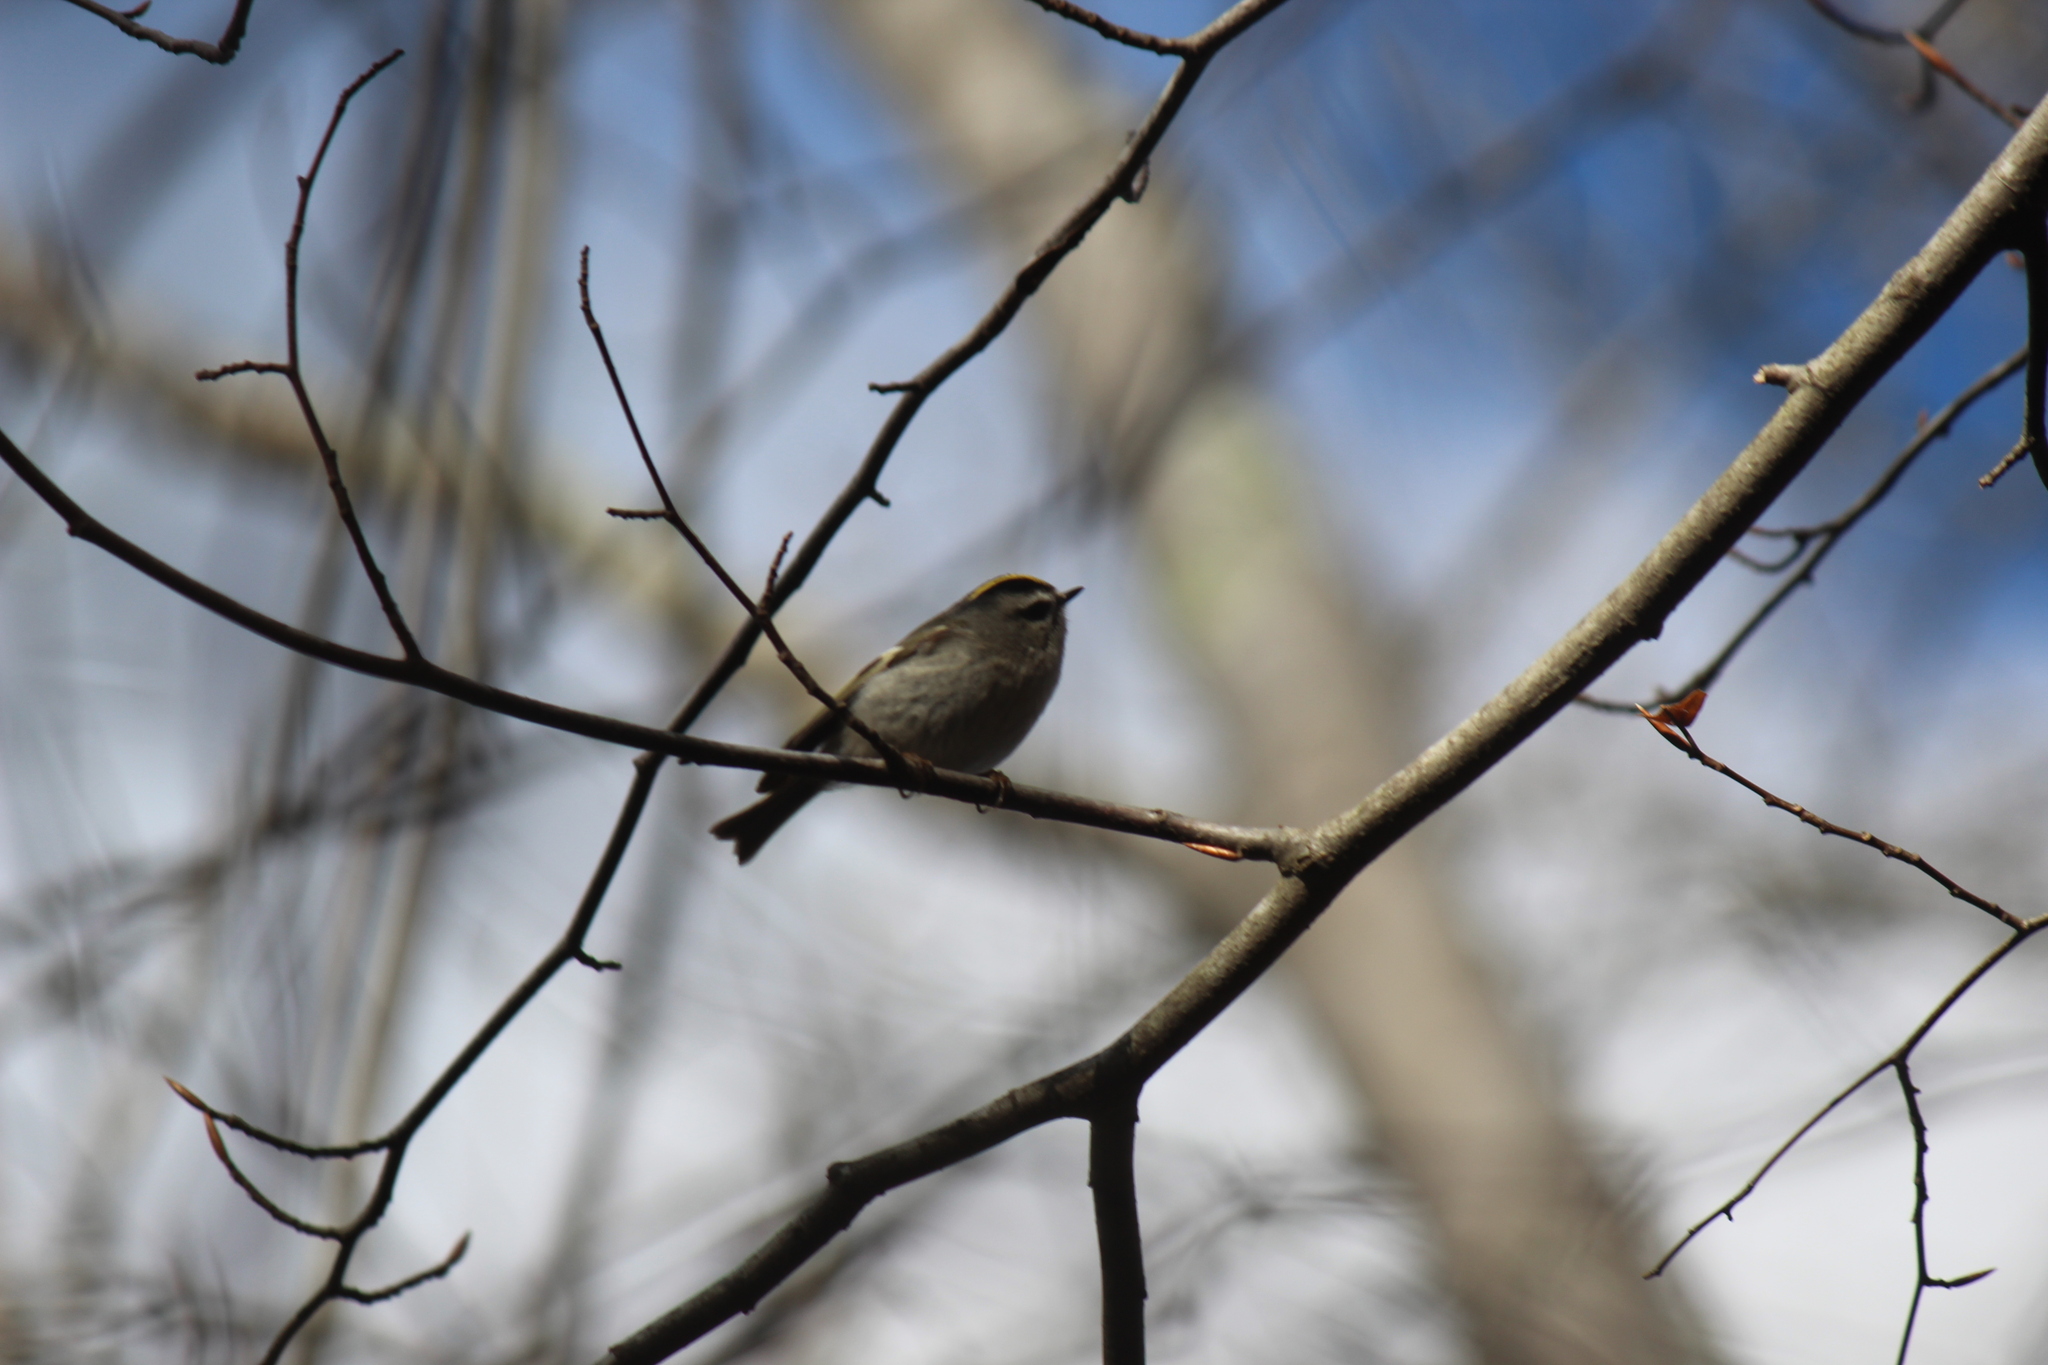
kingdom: Animalia
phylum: Chordata
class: Aves
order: Passeriformes
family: Regulidae
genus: Regulus
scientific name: Regulus satrapa
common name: Golden-crowned kinglet
